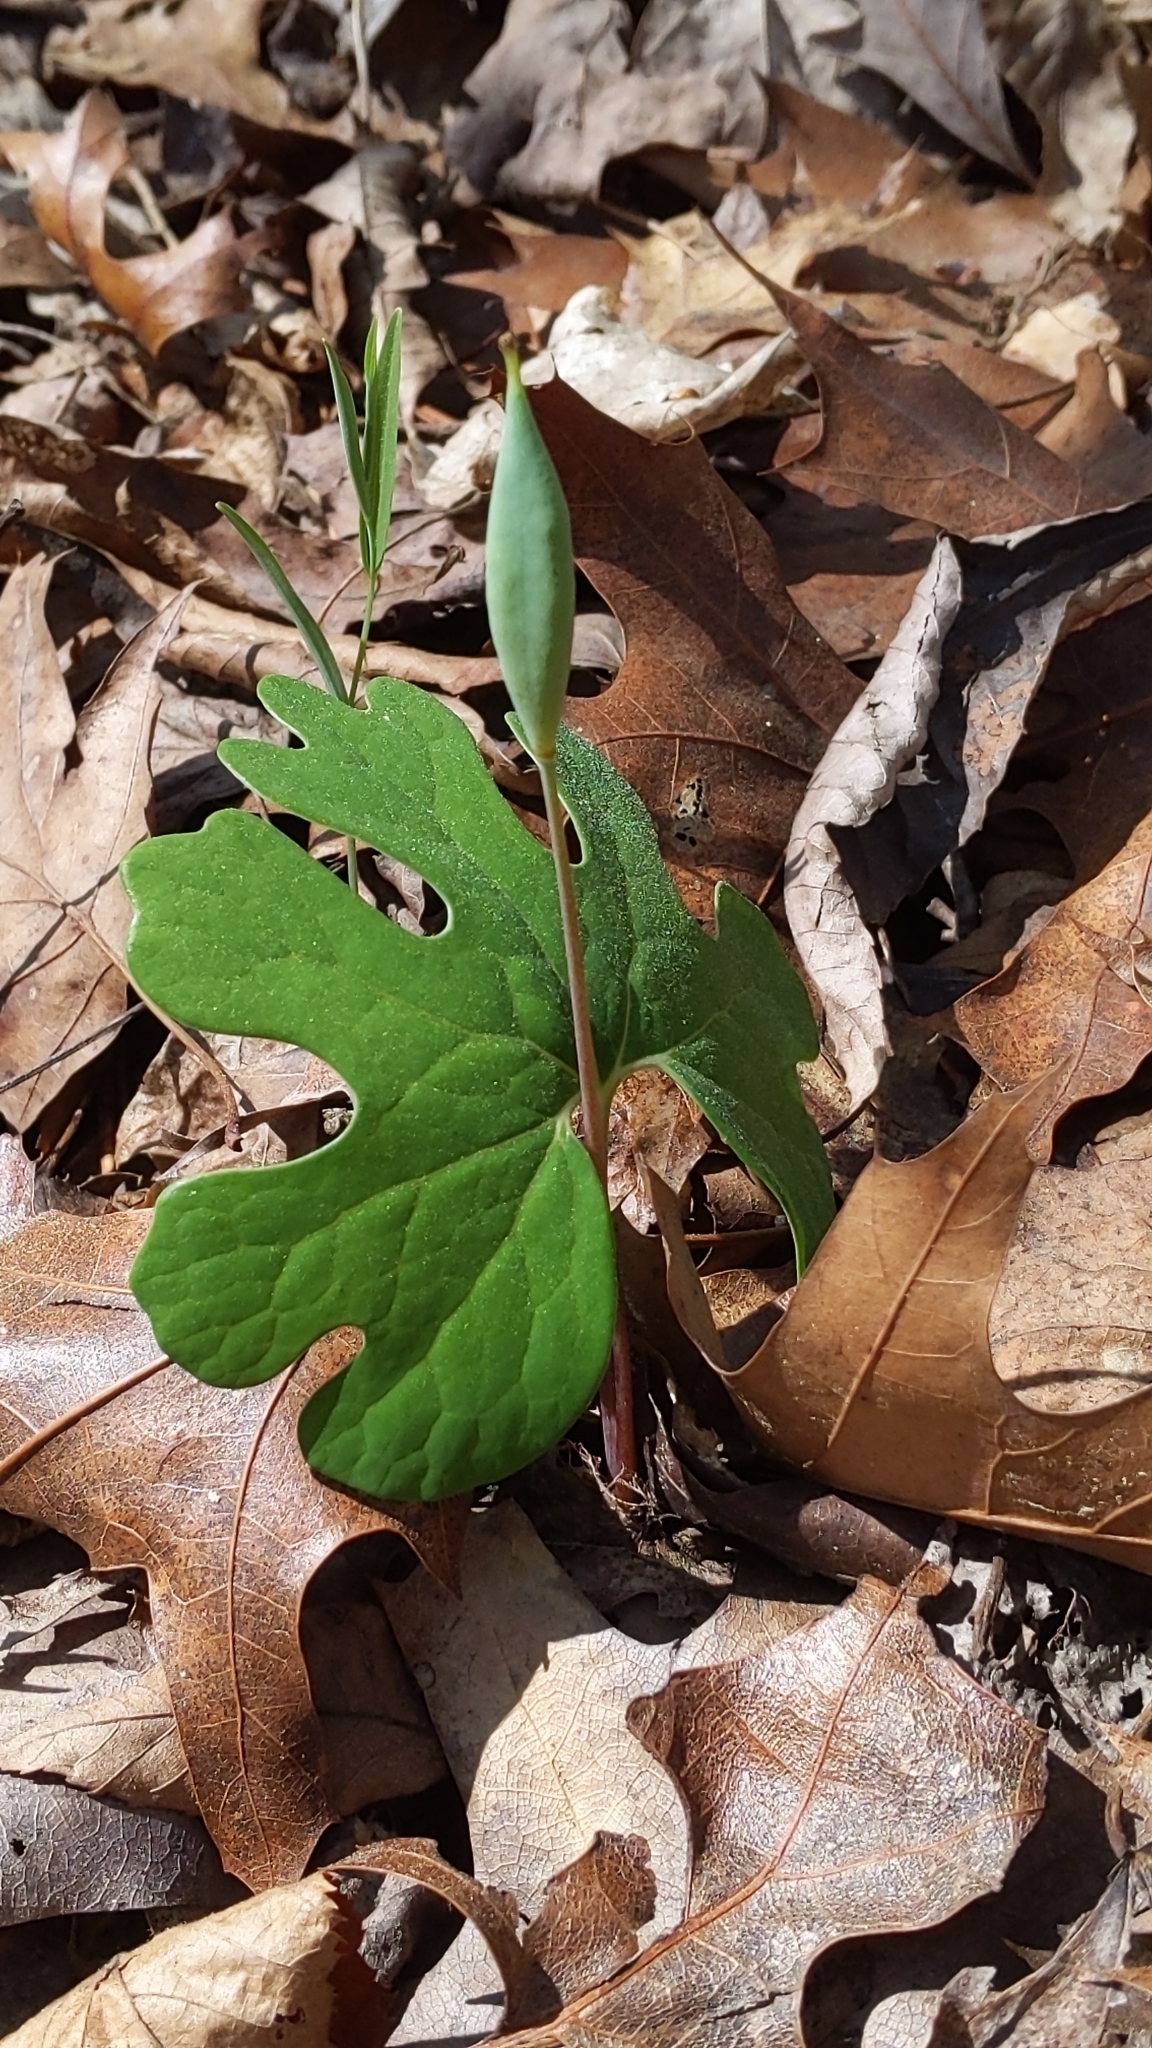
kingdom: Plantae
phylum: Tracheophyta
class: Magnoliopsida
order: Ranunculales
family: Papaveraceae
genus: Sanguinaria
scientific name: Sanguinaria canadensis
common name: Bloodroot
